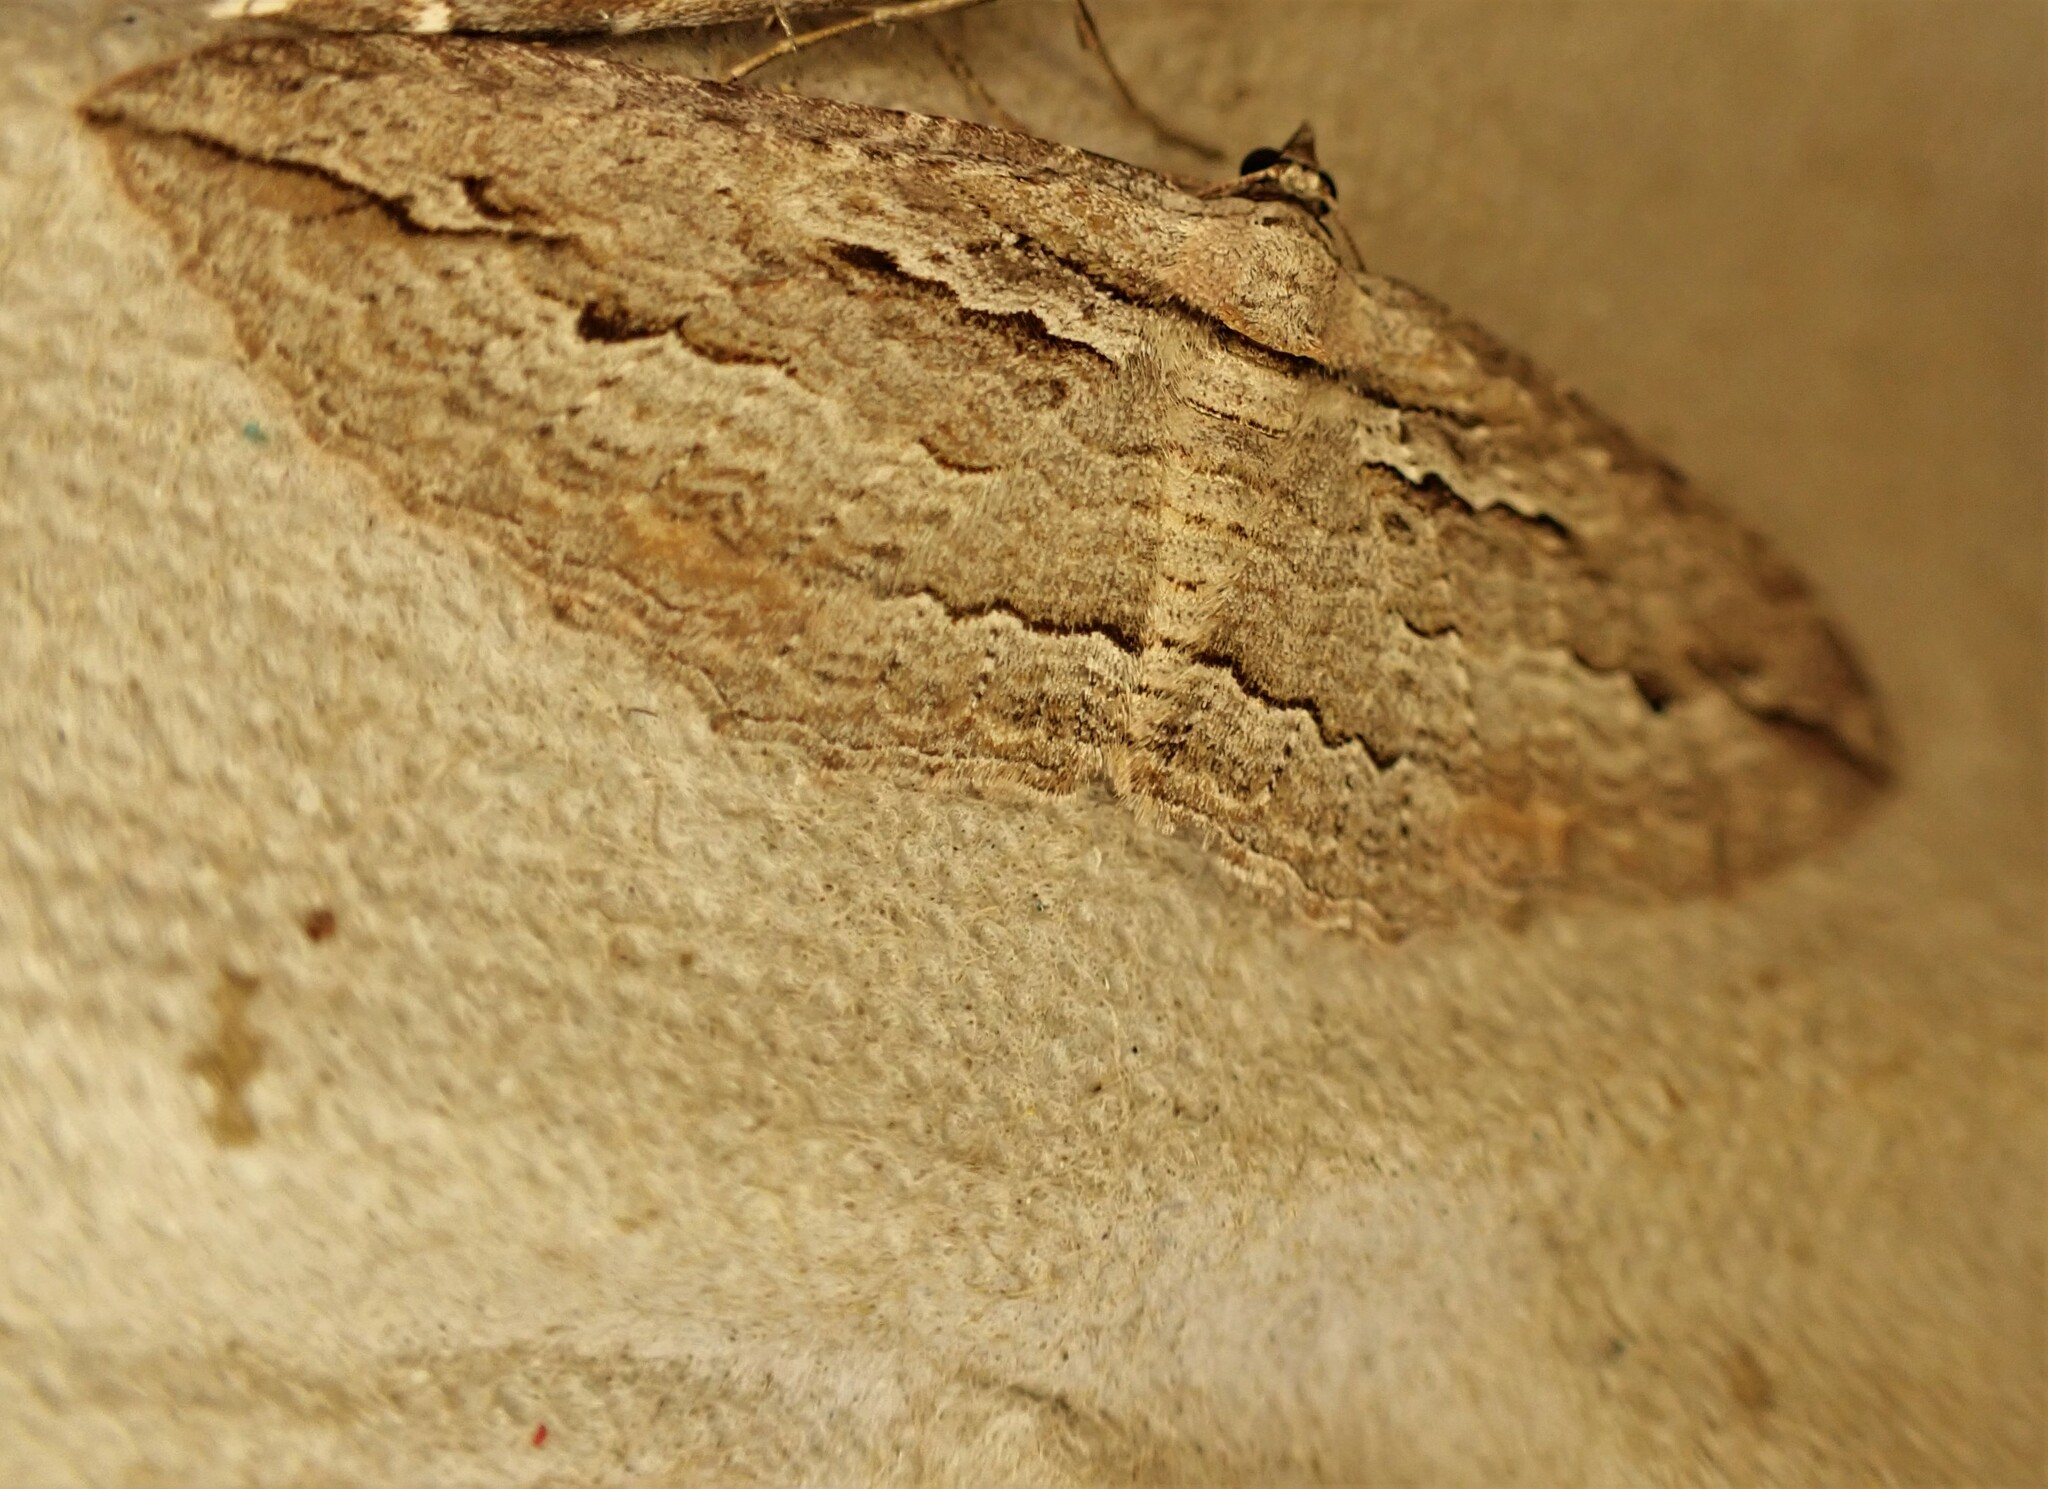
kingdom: Animalia
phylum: Arthropoda
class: Insecta
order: Lepidoptera
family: Geometridae
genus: Austrocidaria
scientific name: Austrocidaria gobiata
